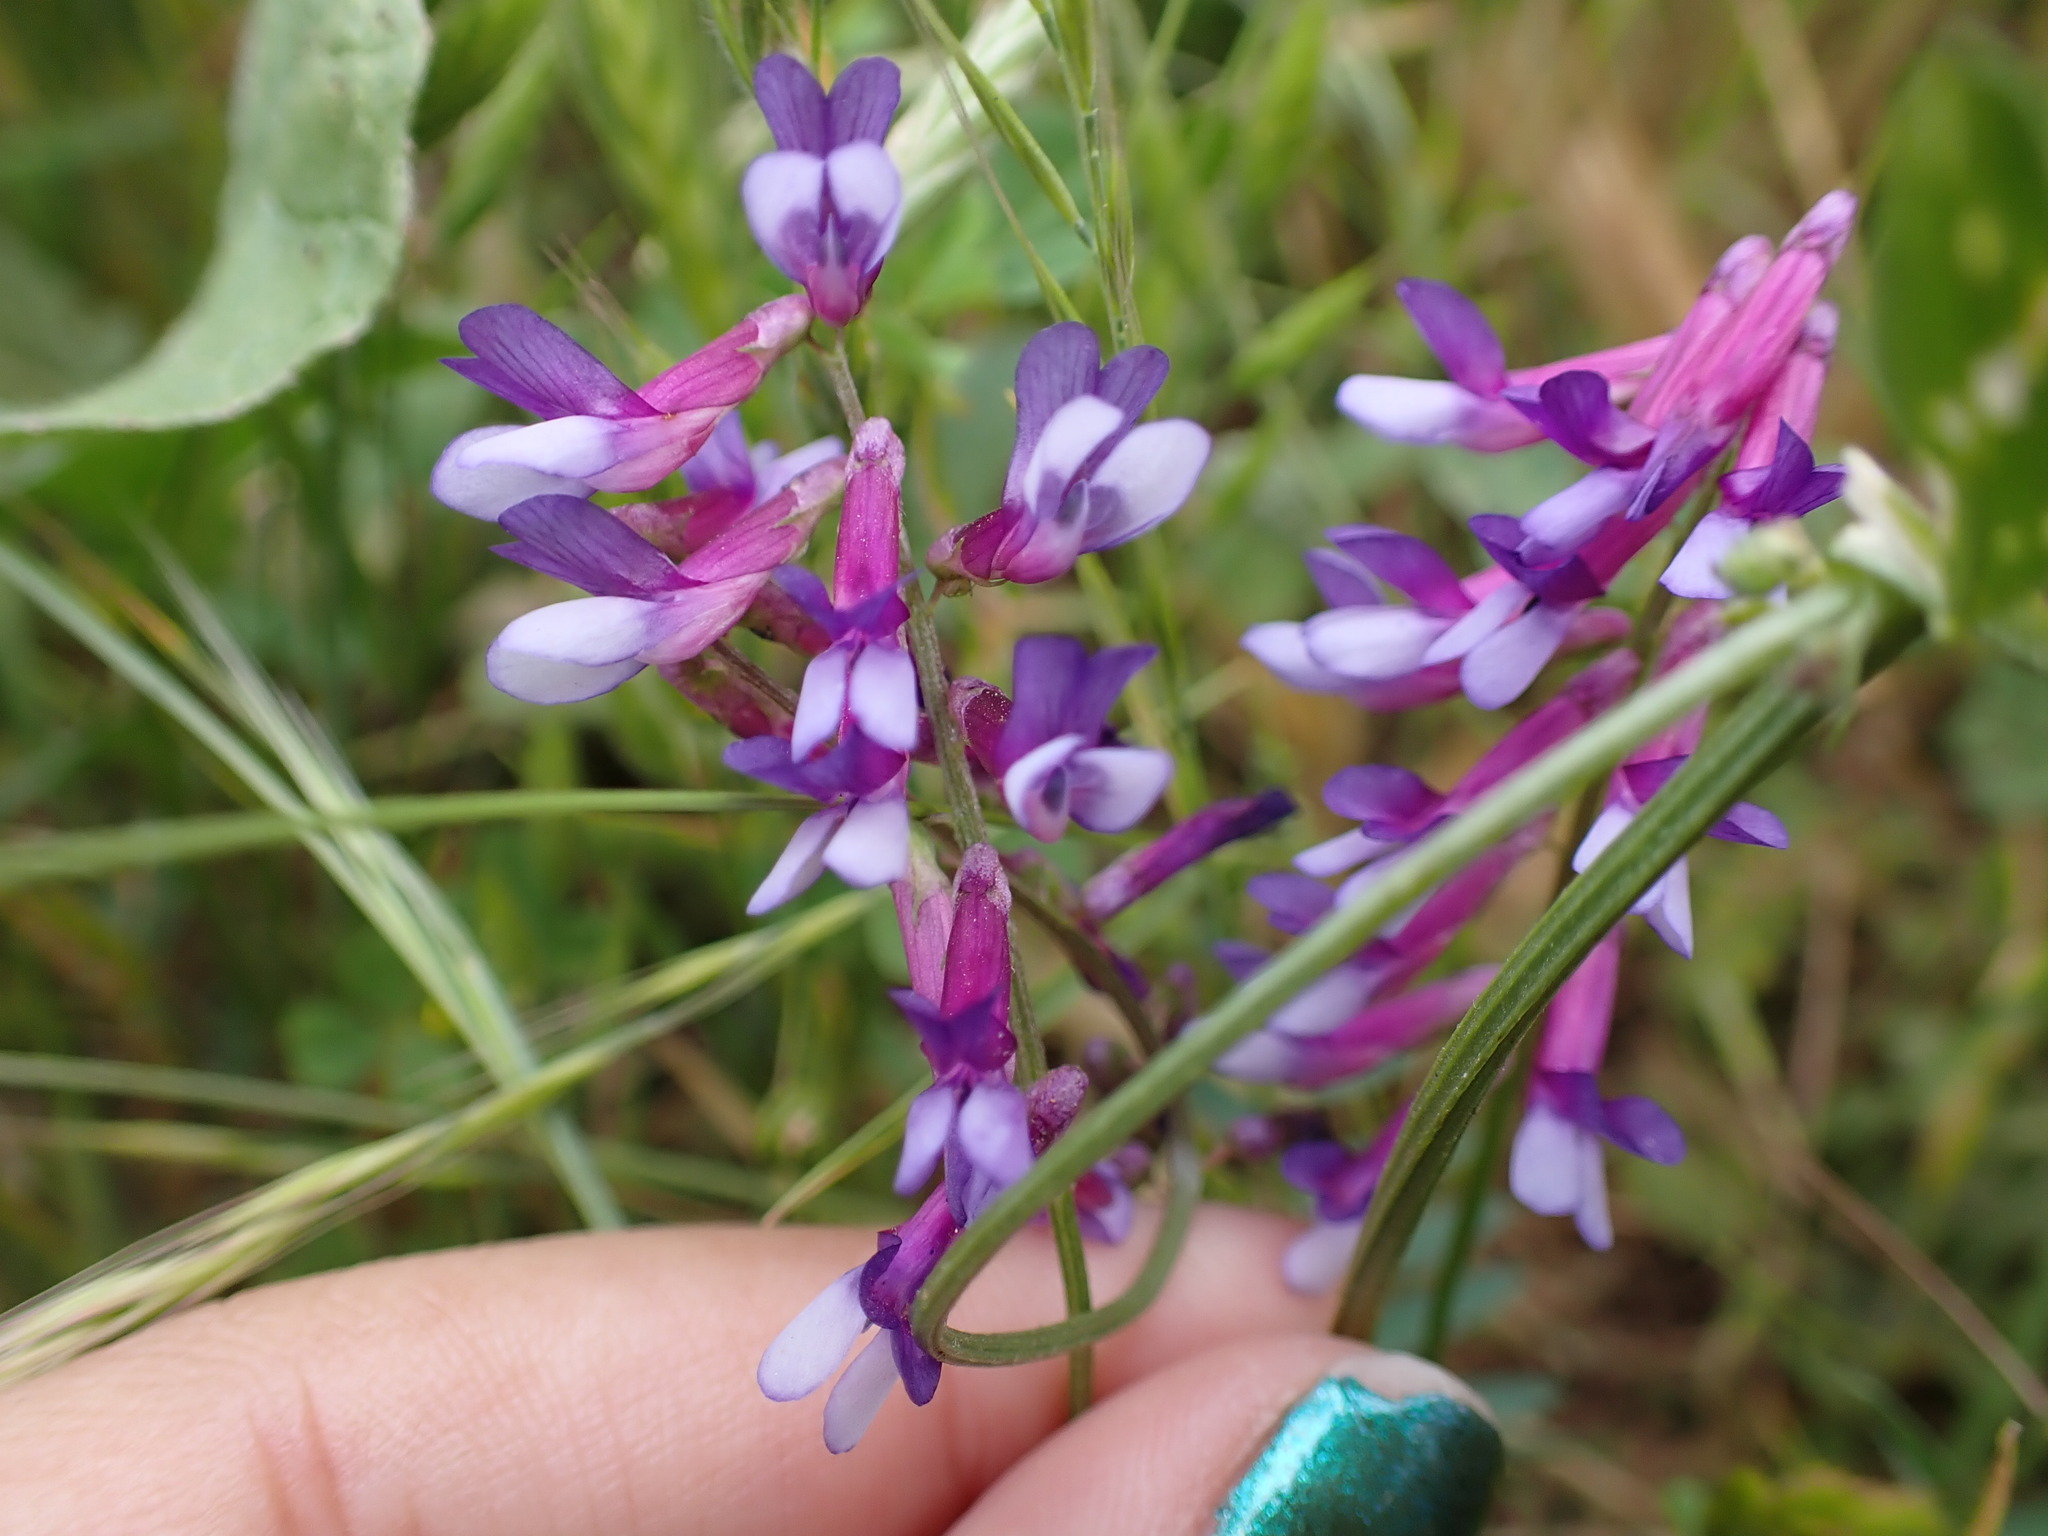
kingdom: Plantae
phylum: Tracheophyta
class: Magnoliopsida
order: Fabales
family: Fabaceae
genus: Vicia
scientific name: Vicia villosa
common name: Fodder vetch
